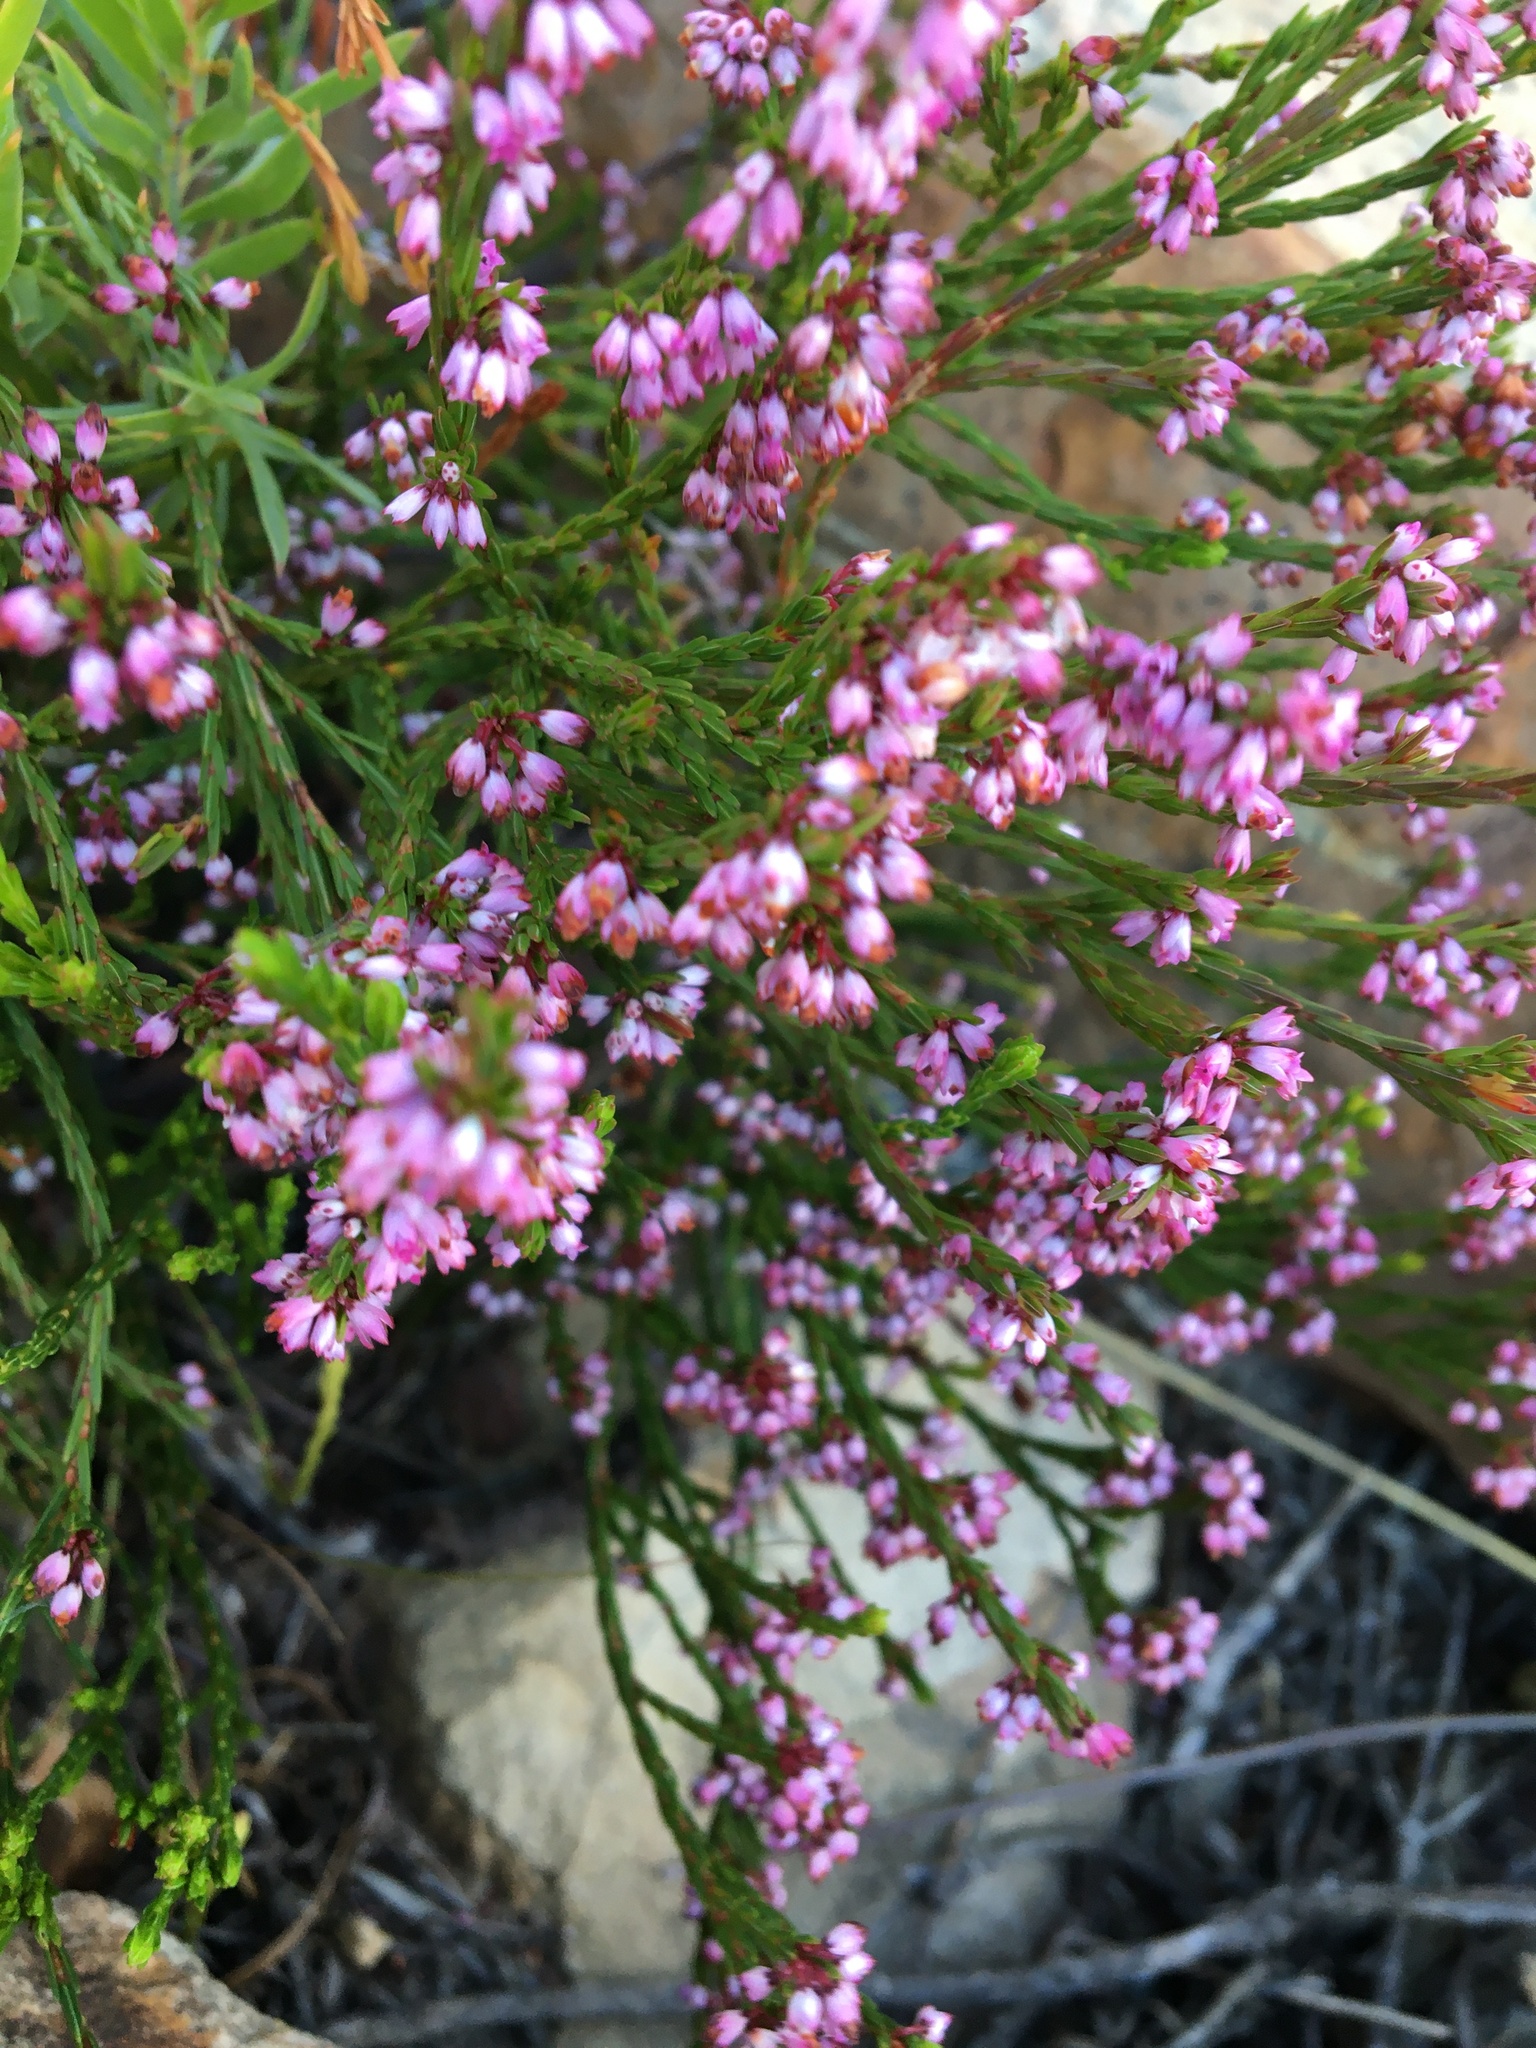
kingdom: Plantae
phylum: Tracheophyta
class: Magnoliopsida
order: Ericales
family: Ericaceae
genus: Erica
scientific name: Erica articularis
